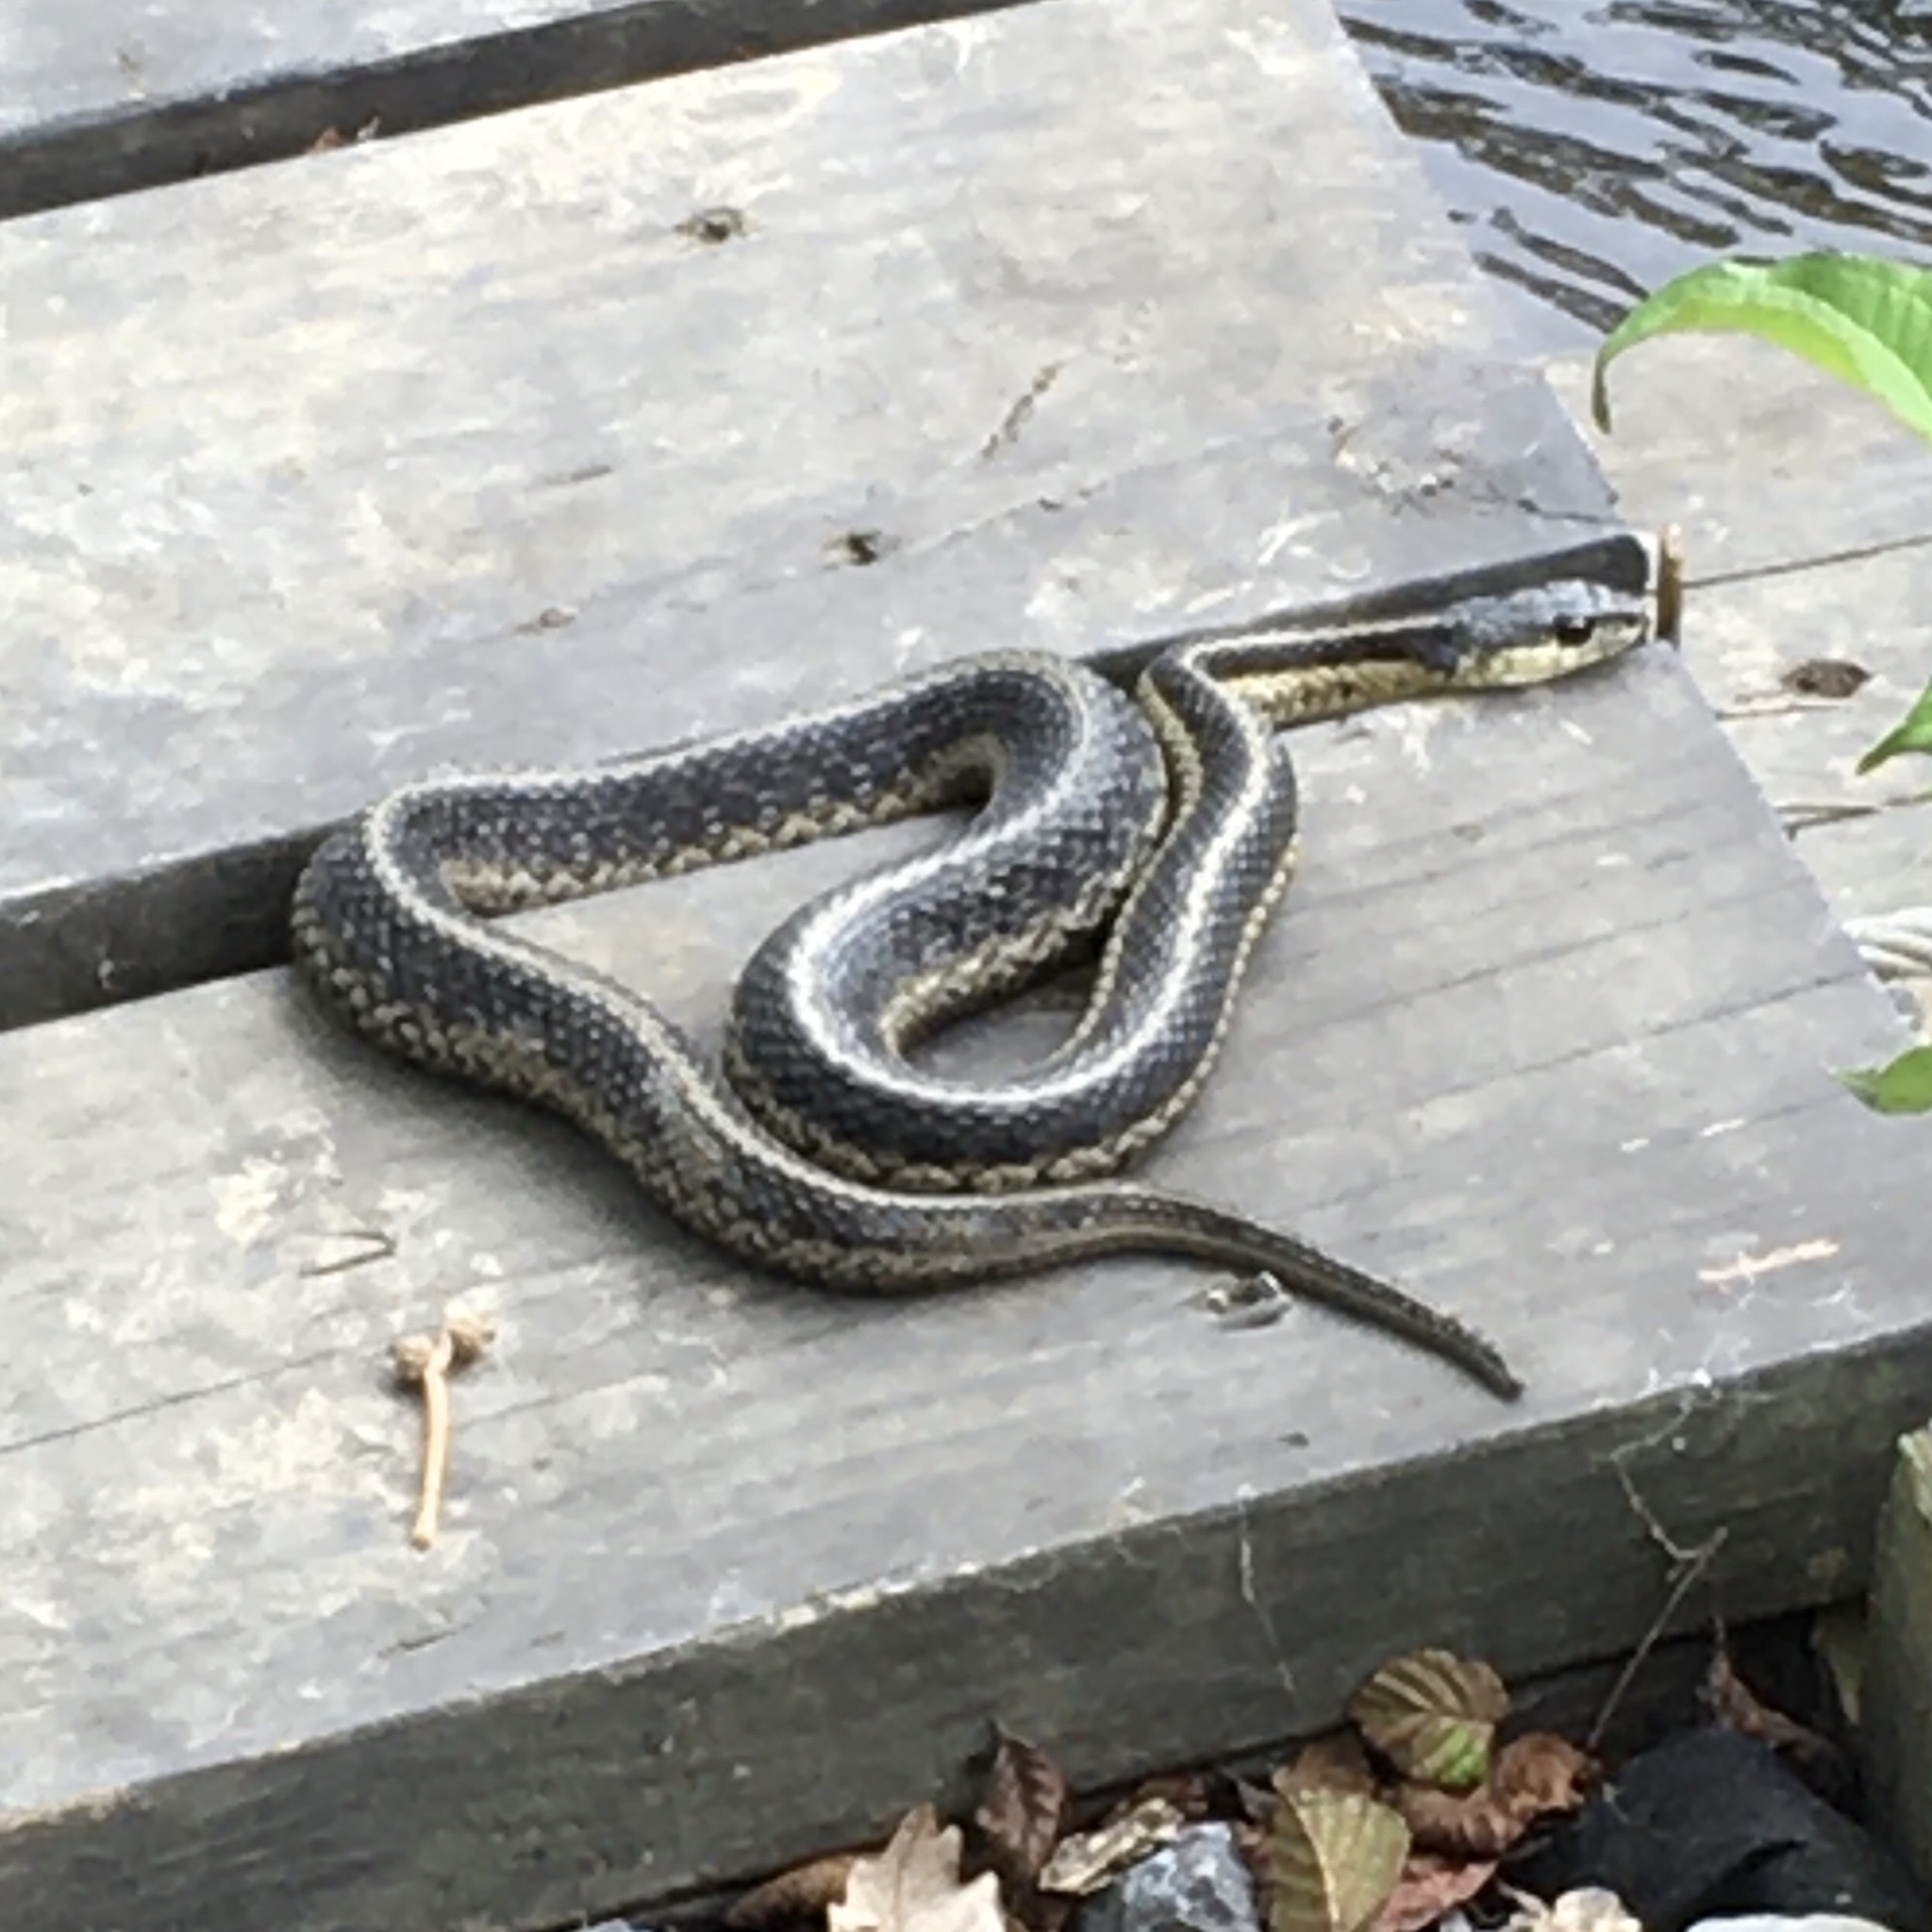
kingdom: Animalia
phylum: Chordata
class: Squamata
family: Colubridae
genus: Thamnophis
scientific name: Thamnophis sirtalis
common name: Common garter snake
